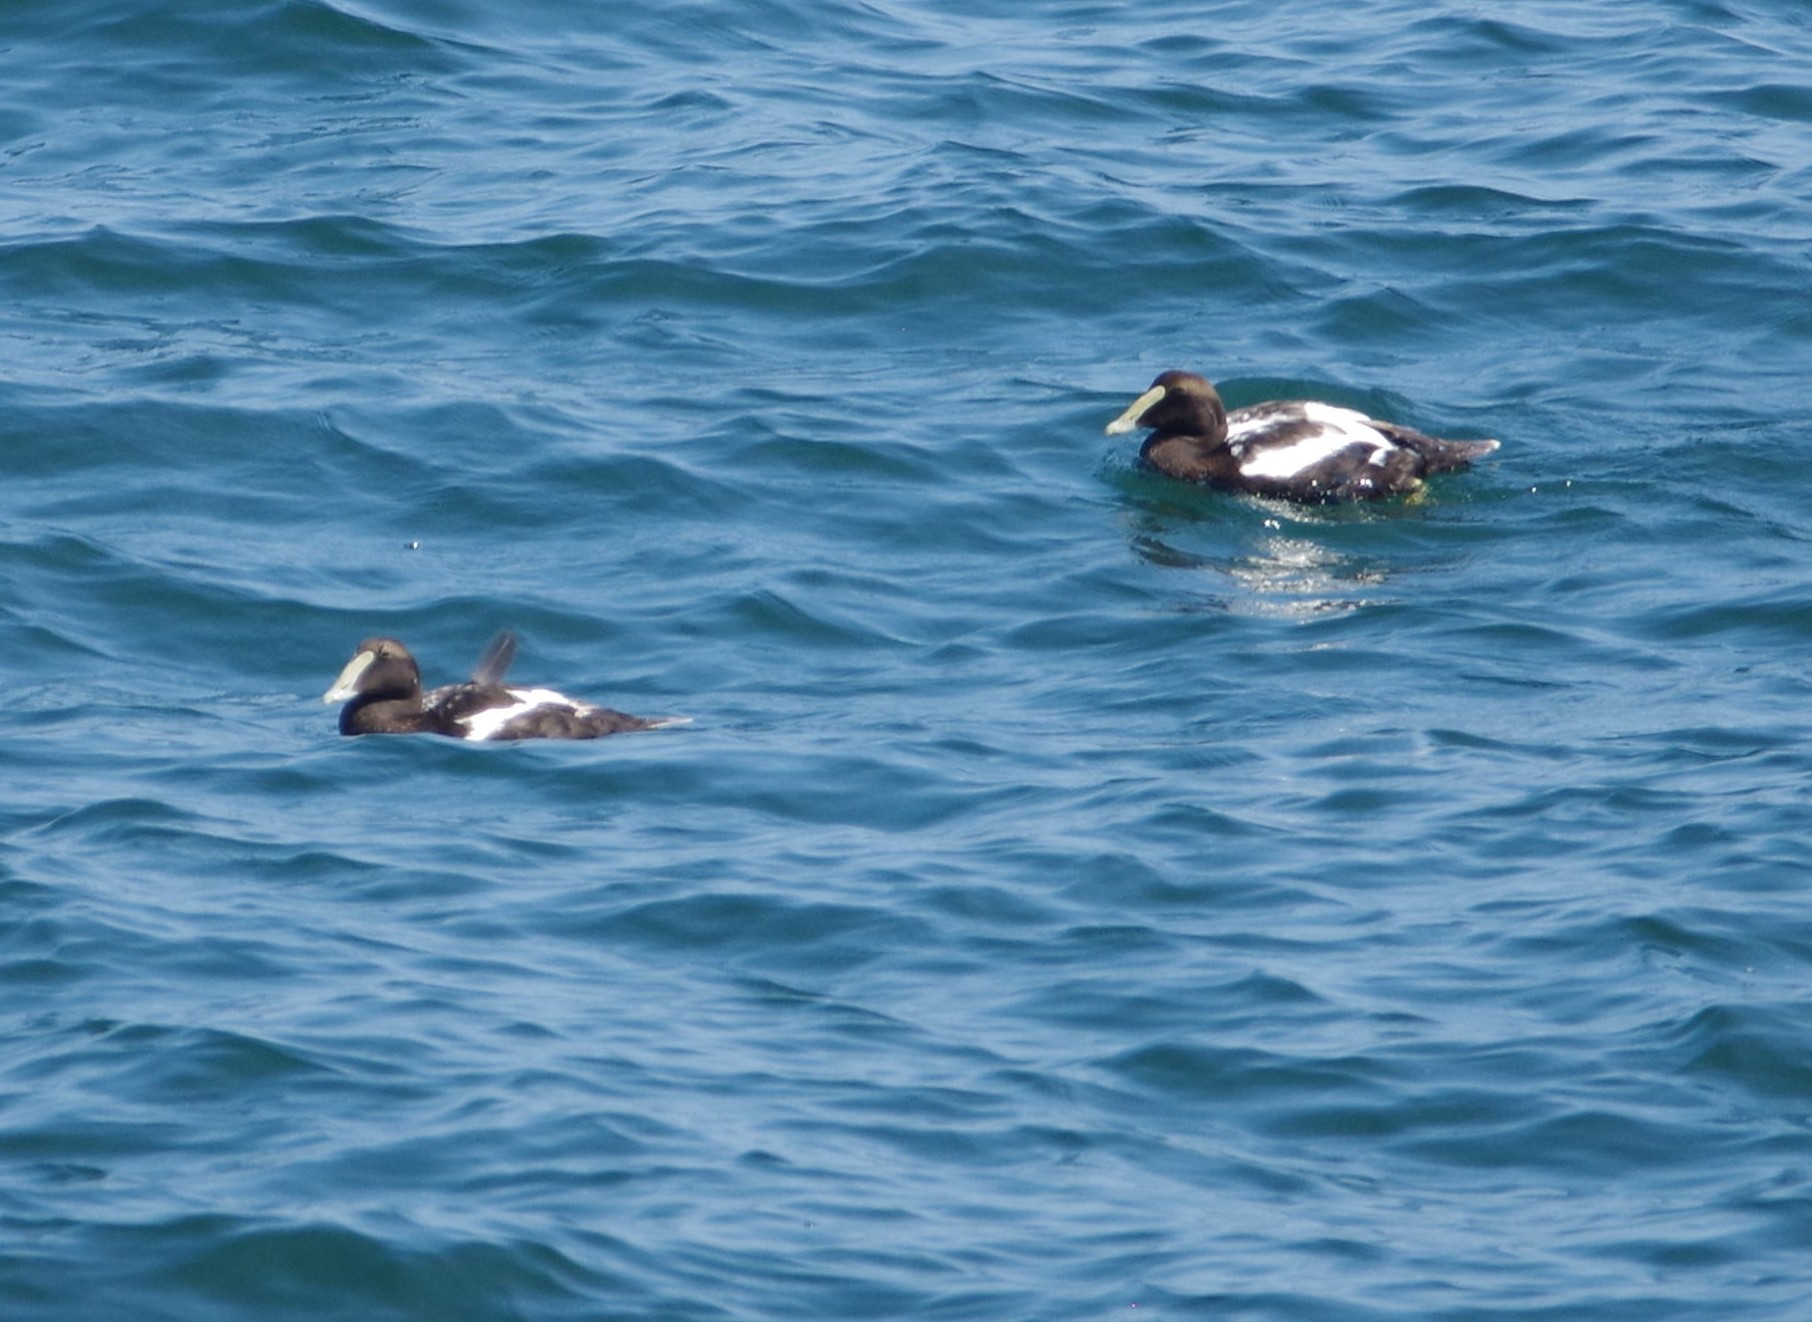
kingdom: Animalia
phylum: Chordata
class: Aves
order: Anseriformes
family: Anatidae
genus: Somateria
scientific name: Somateria mollissima
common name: Common eider
